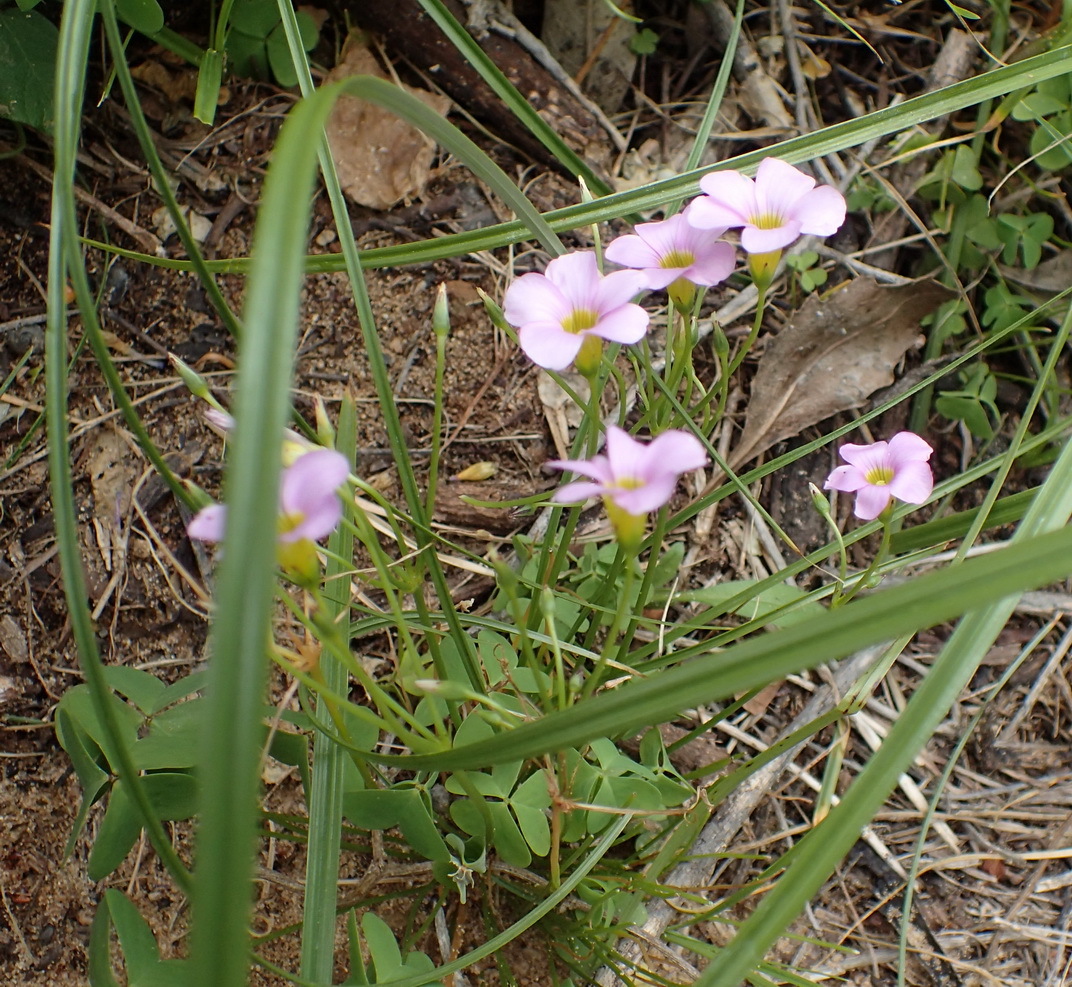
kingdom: Plantae
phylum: Tracheophyta
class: Magnoliopsida
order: Oxalidales
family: Oxalidaceae
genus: Oxalis
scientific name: Oxalis caprina
